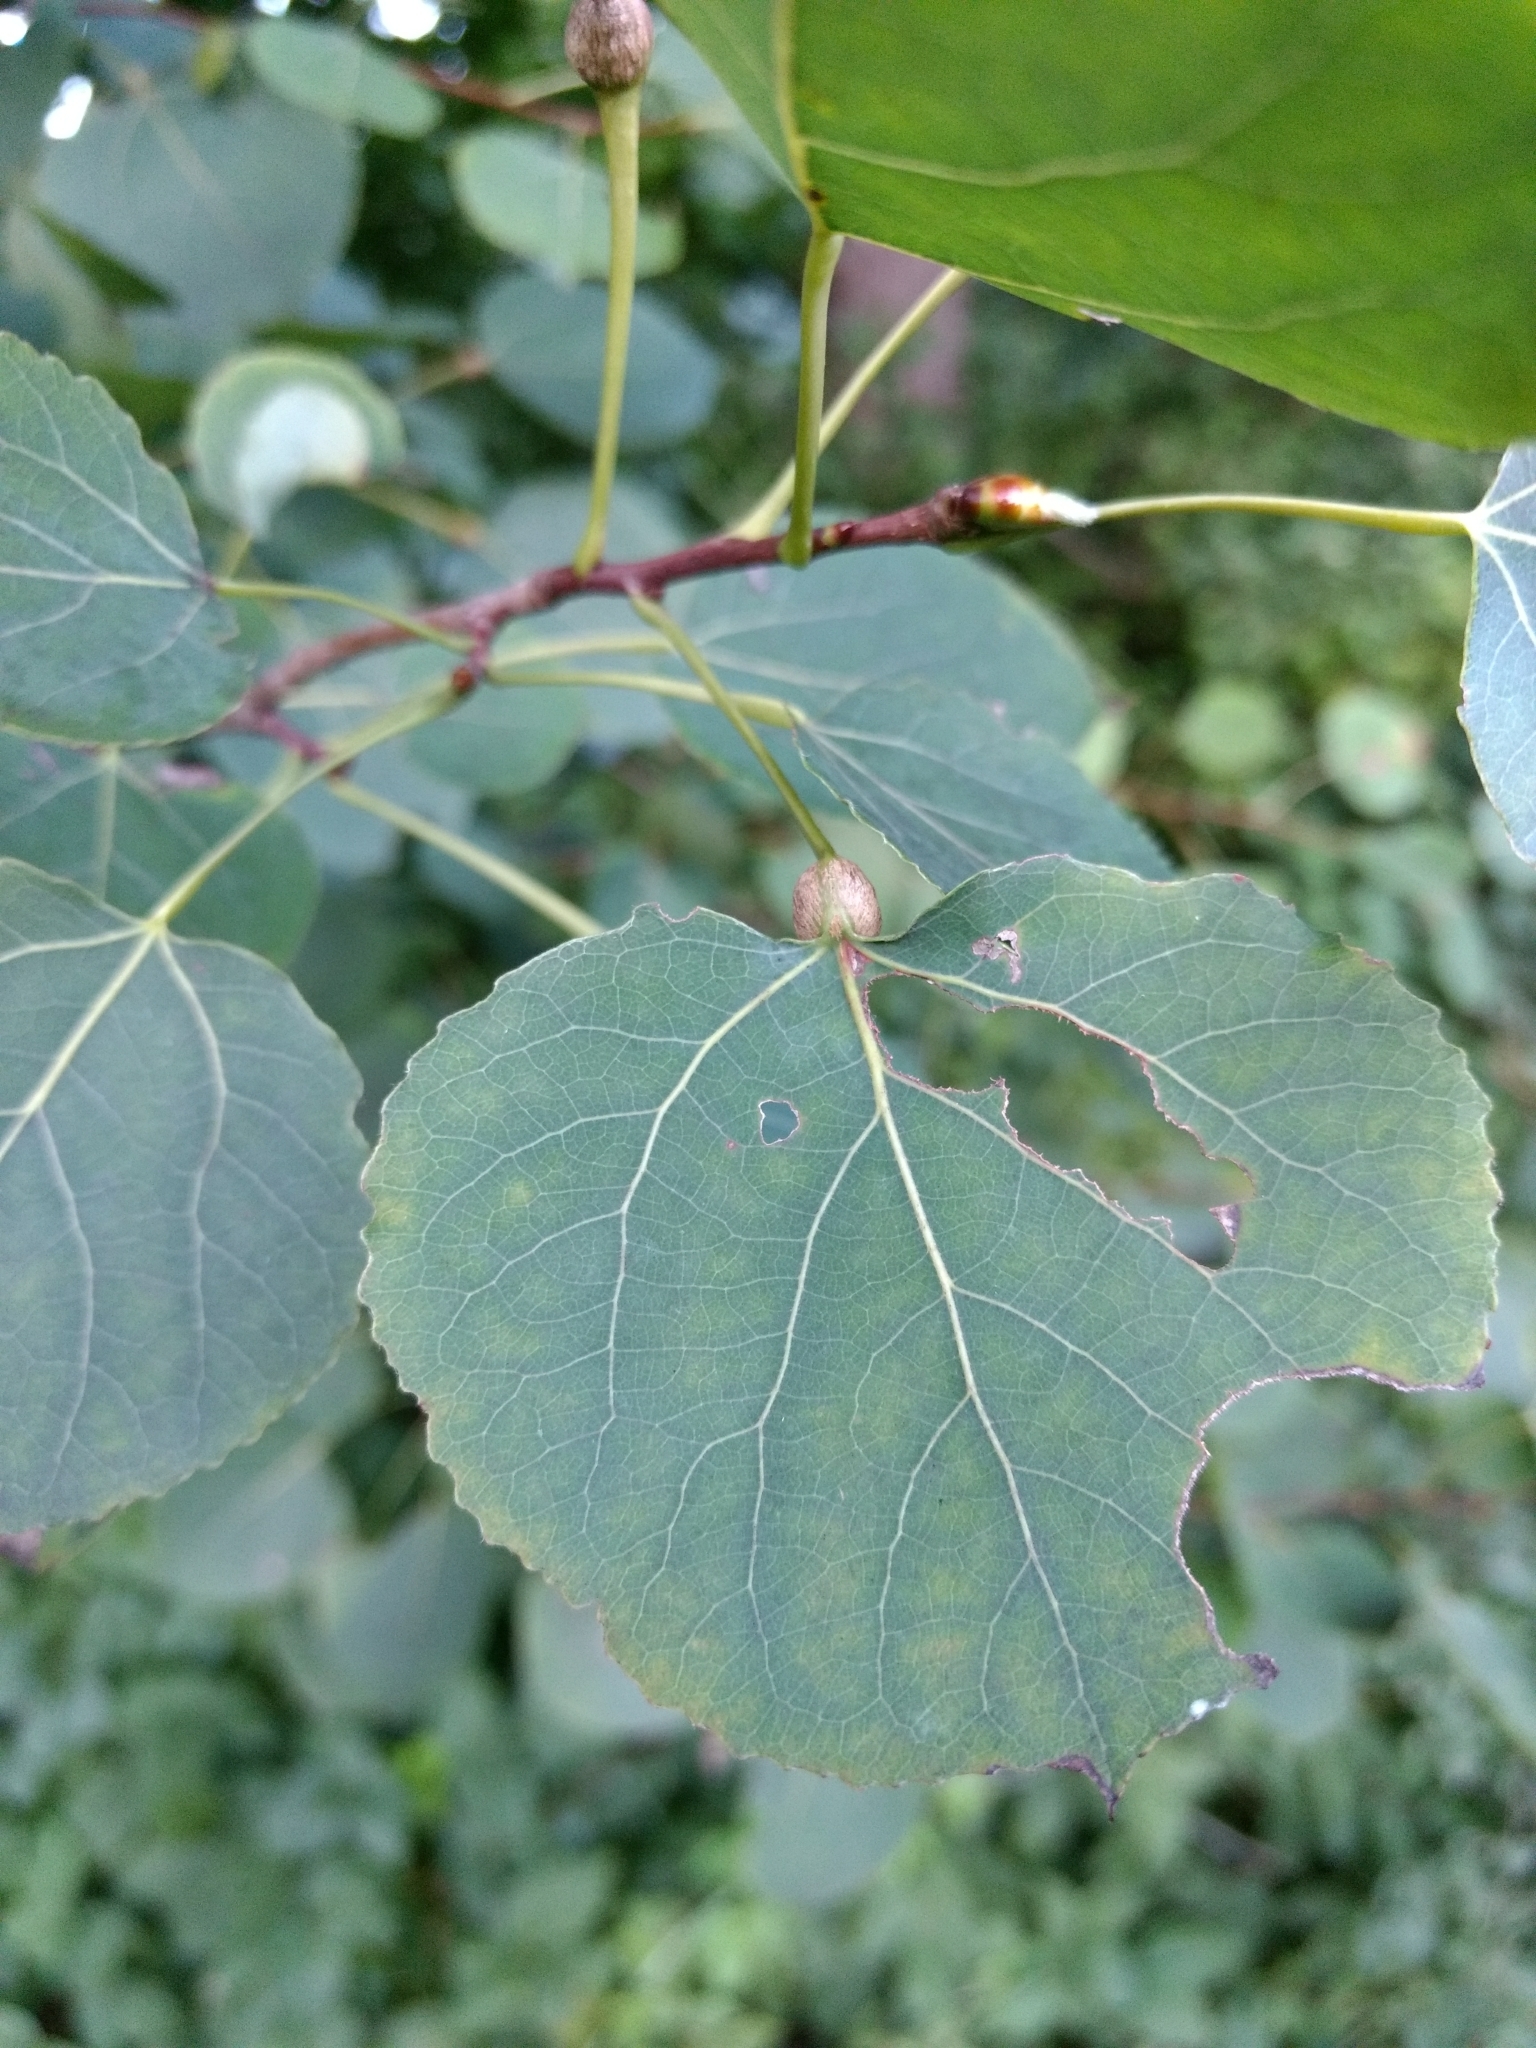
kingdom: Animalia
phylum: Arthropoda
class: Insecta
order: Lepidoptera
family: Nepticulidae
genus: Ectoedemia
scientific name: Ectoedemia populella
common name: Aspen petiole gall moth
